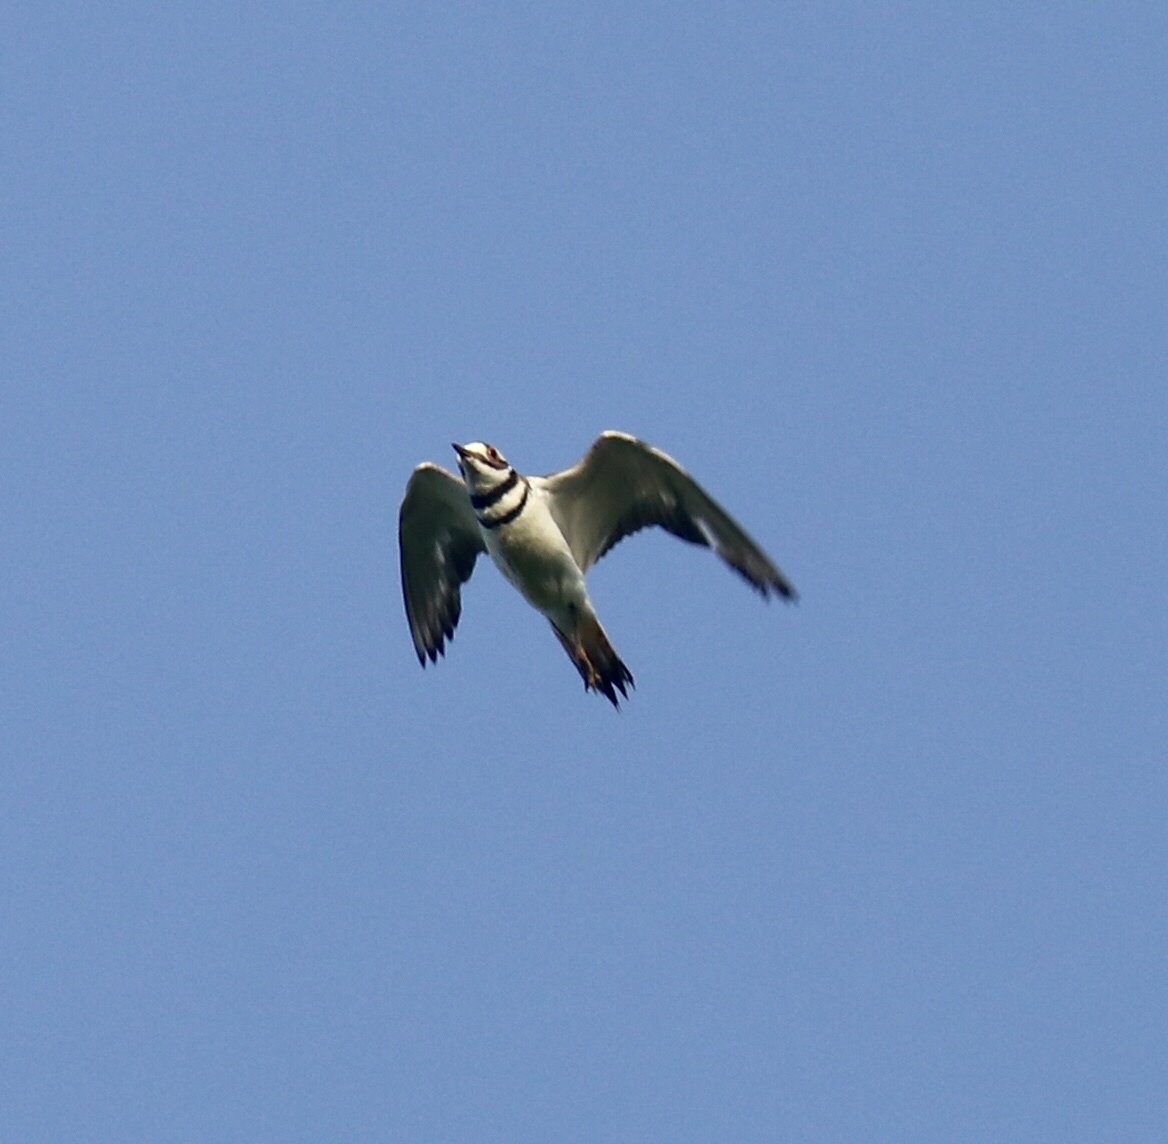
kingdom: Animalia
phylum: Chordata
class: Aves
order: Charadriiformes
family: Charadriidae
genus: Charadrius
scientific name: Charadrius vociferus
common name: Killdeer
